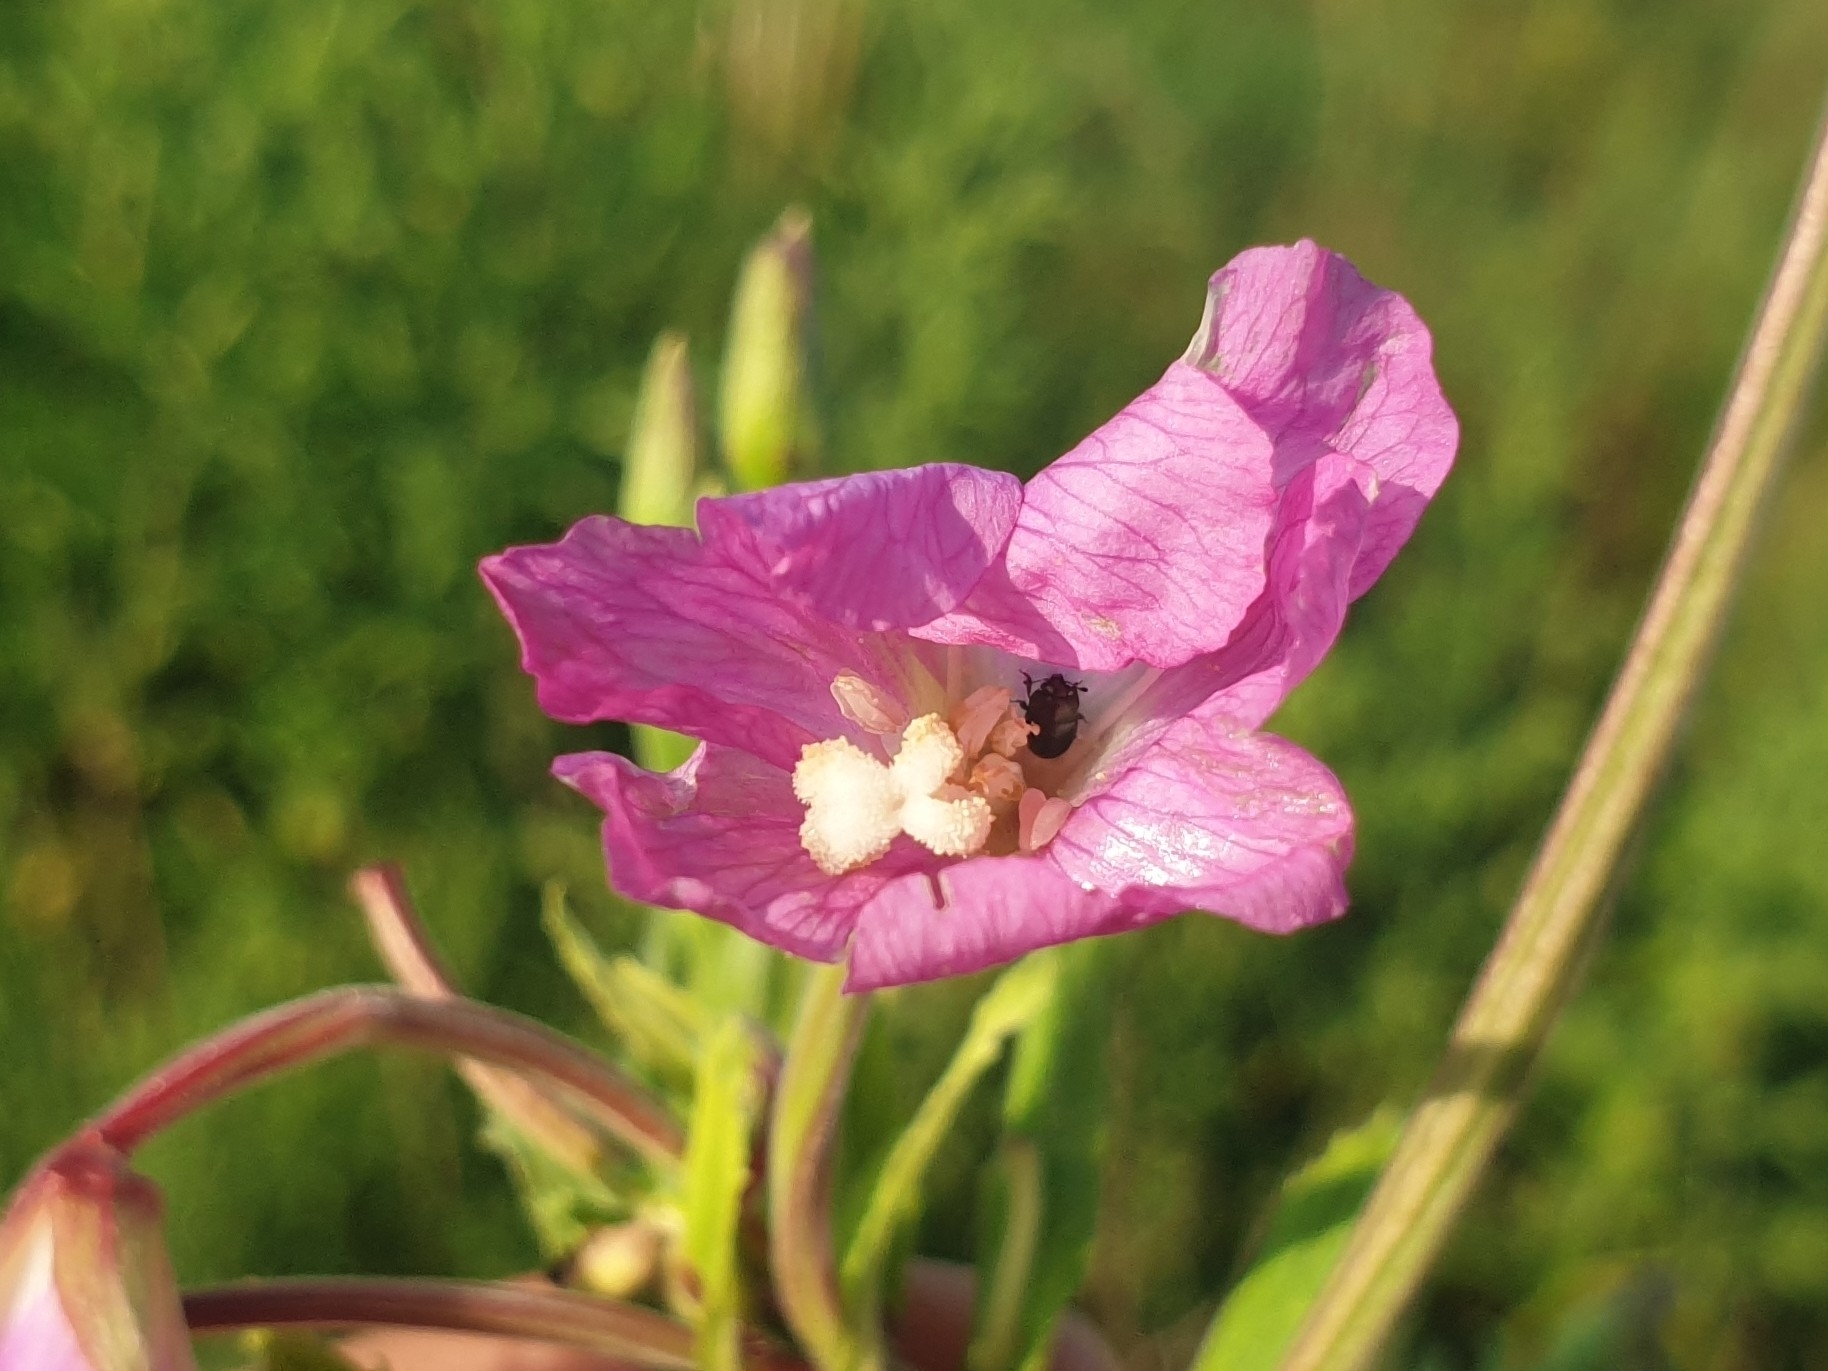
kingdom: Plantae
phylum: Tracheophyta
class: Magnoliopsida
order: Myrtales
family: Onagraceae
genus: Epilobium
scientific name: Epilobium hirsutum
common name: Great willowherb
